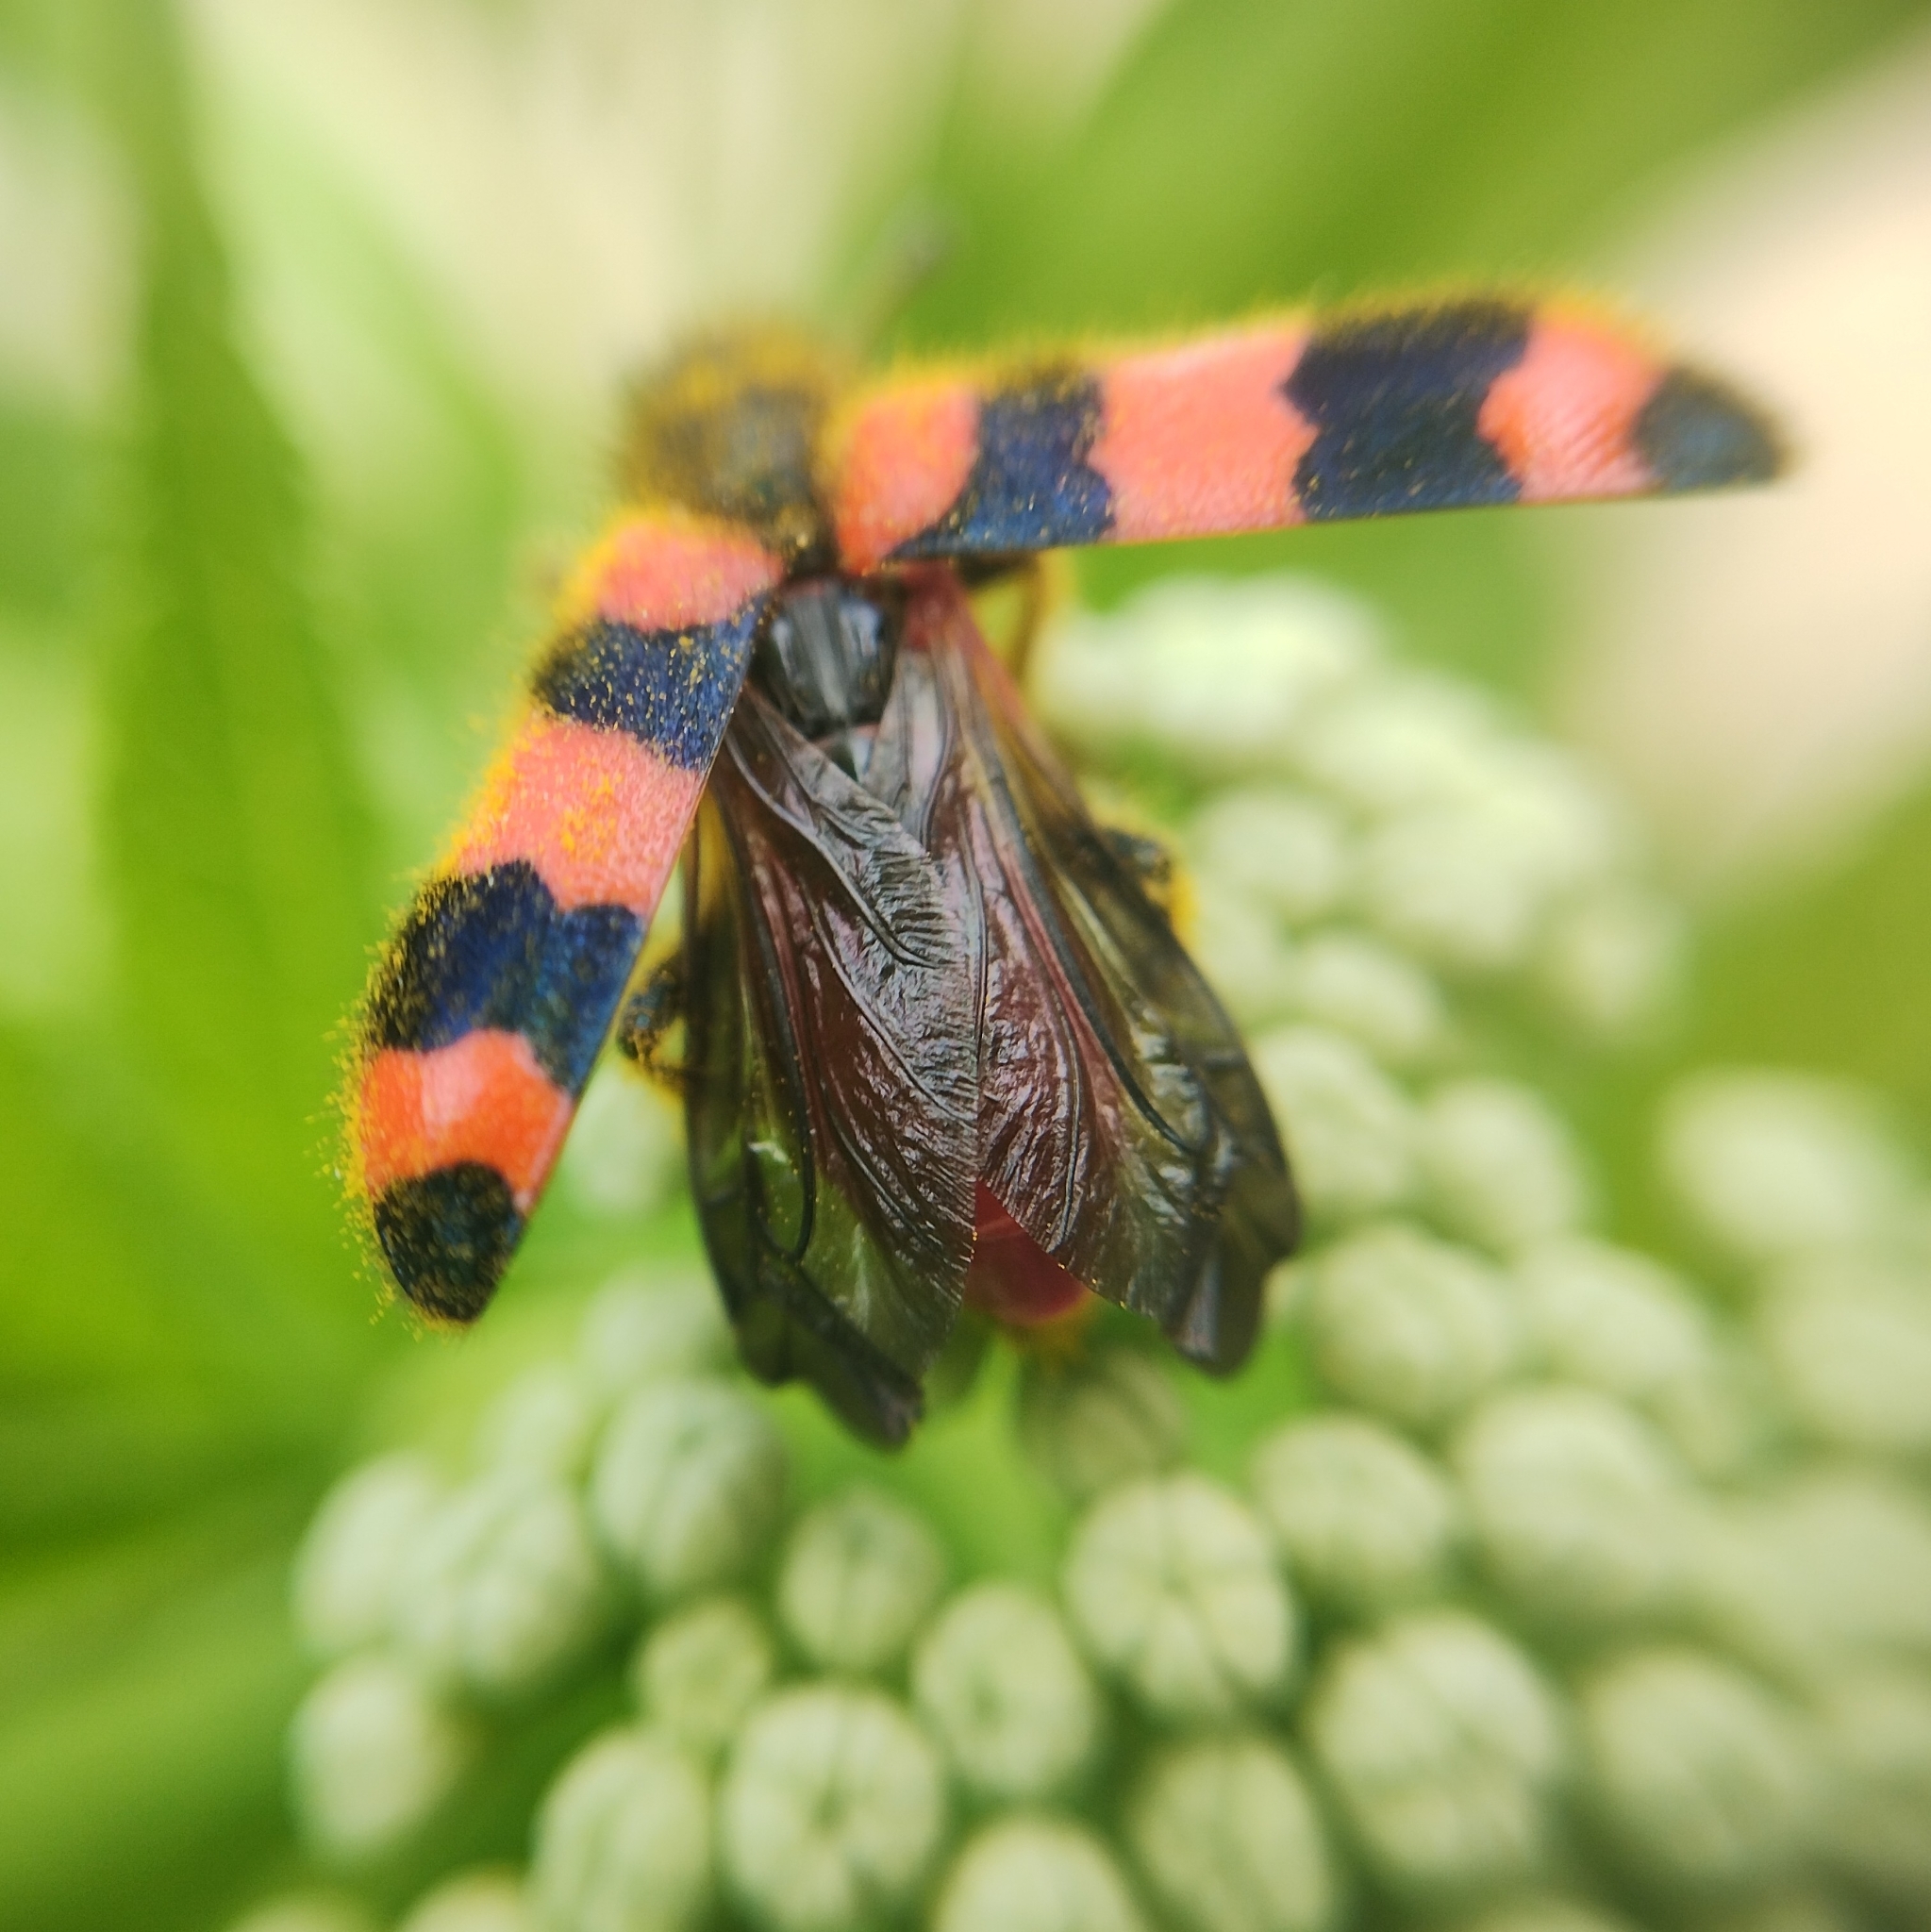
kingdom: Animalia
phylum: Arthropoda
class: Insecta
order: Coleoptera
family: Cleridae
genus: Trichodes
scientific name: Trichodes apiarius
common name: Bee-eating beetle
